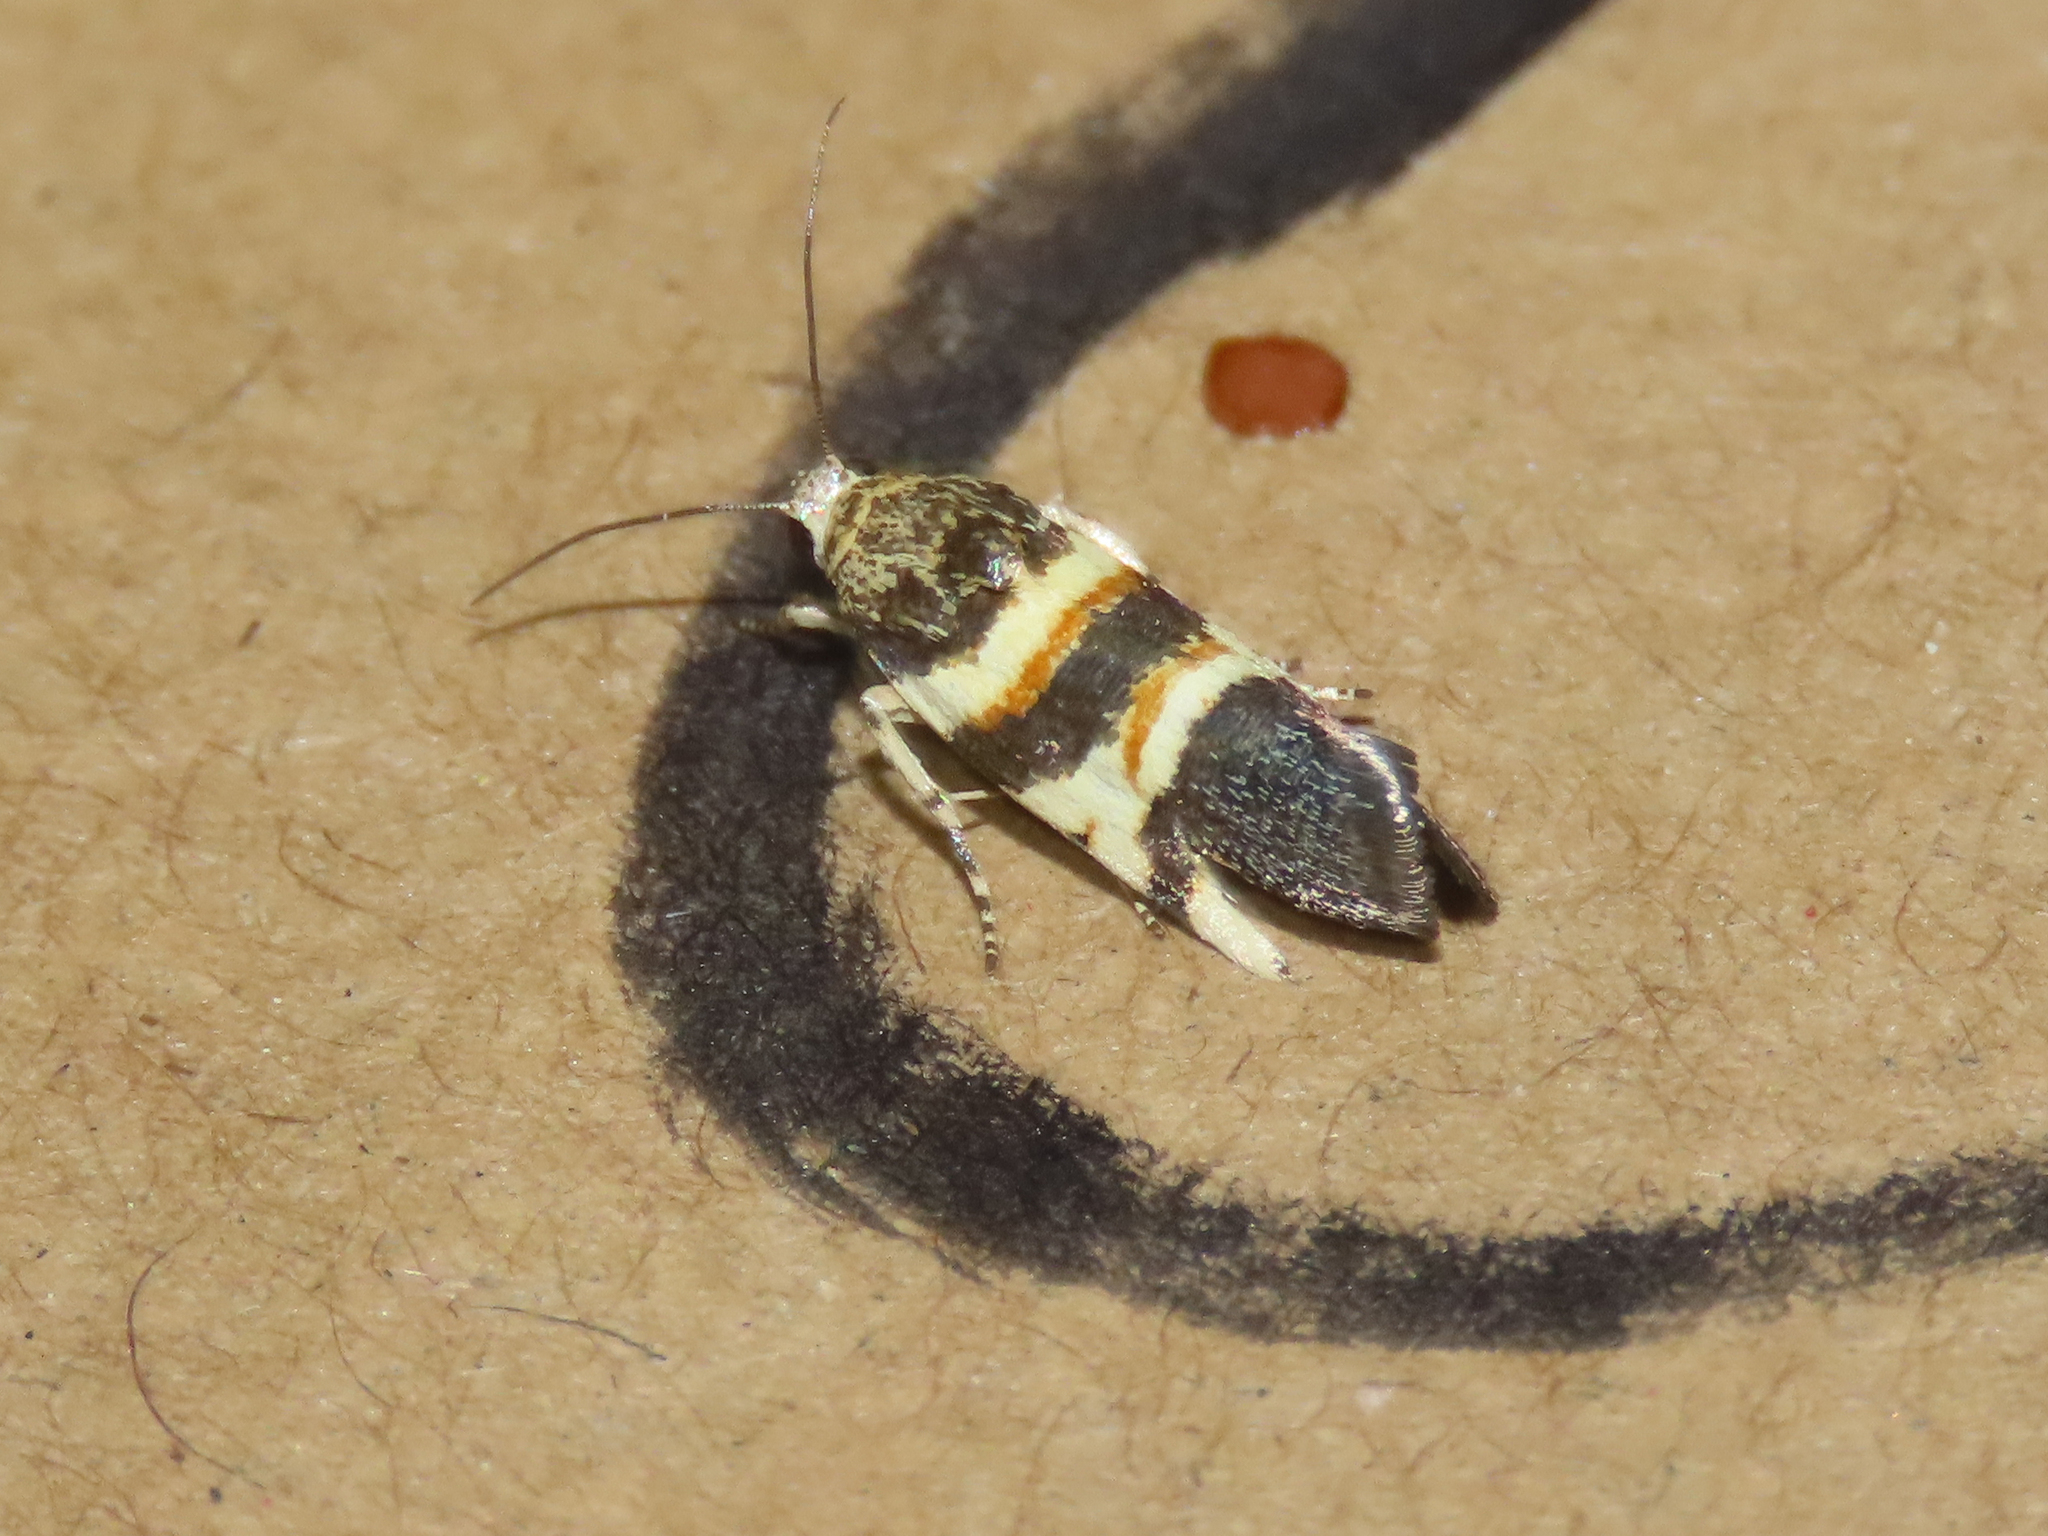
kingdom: Animalia
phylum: Arthropoda
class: Insecta
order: Lepidoptera
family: Noctuidae
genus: Spragueia
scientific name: Spragueia funeralis
